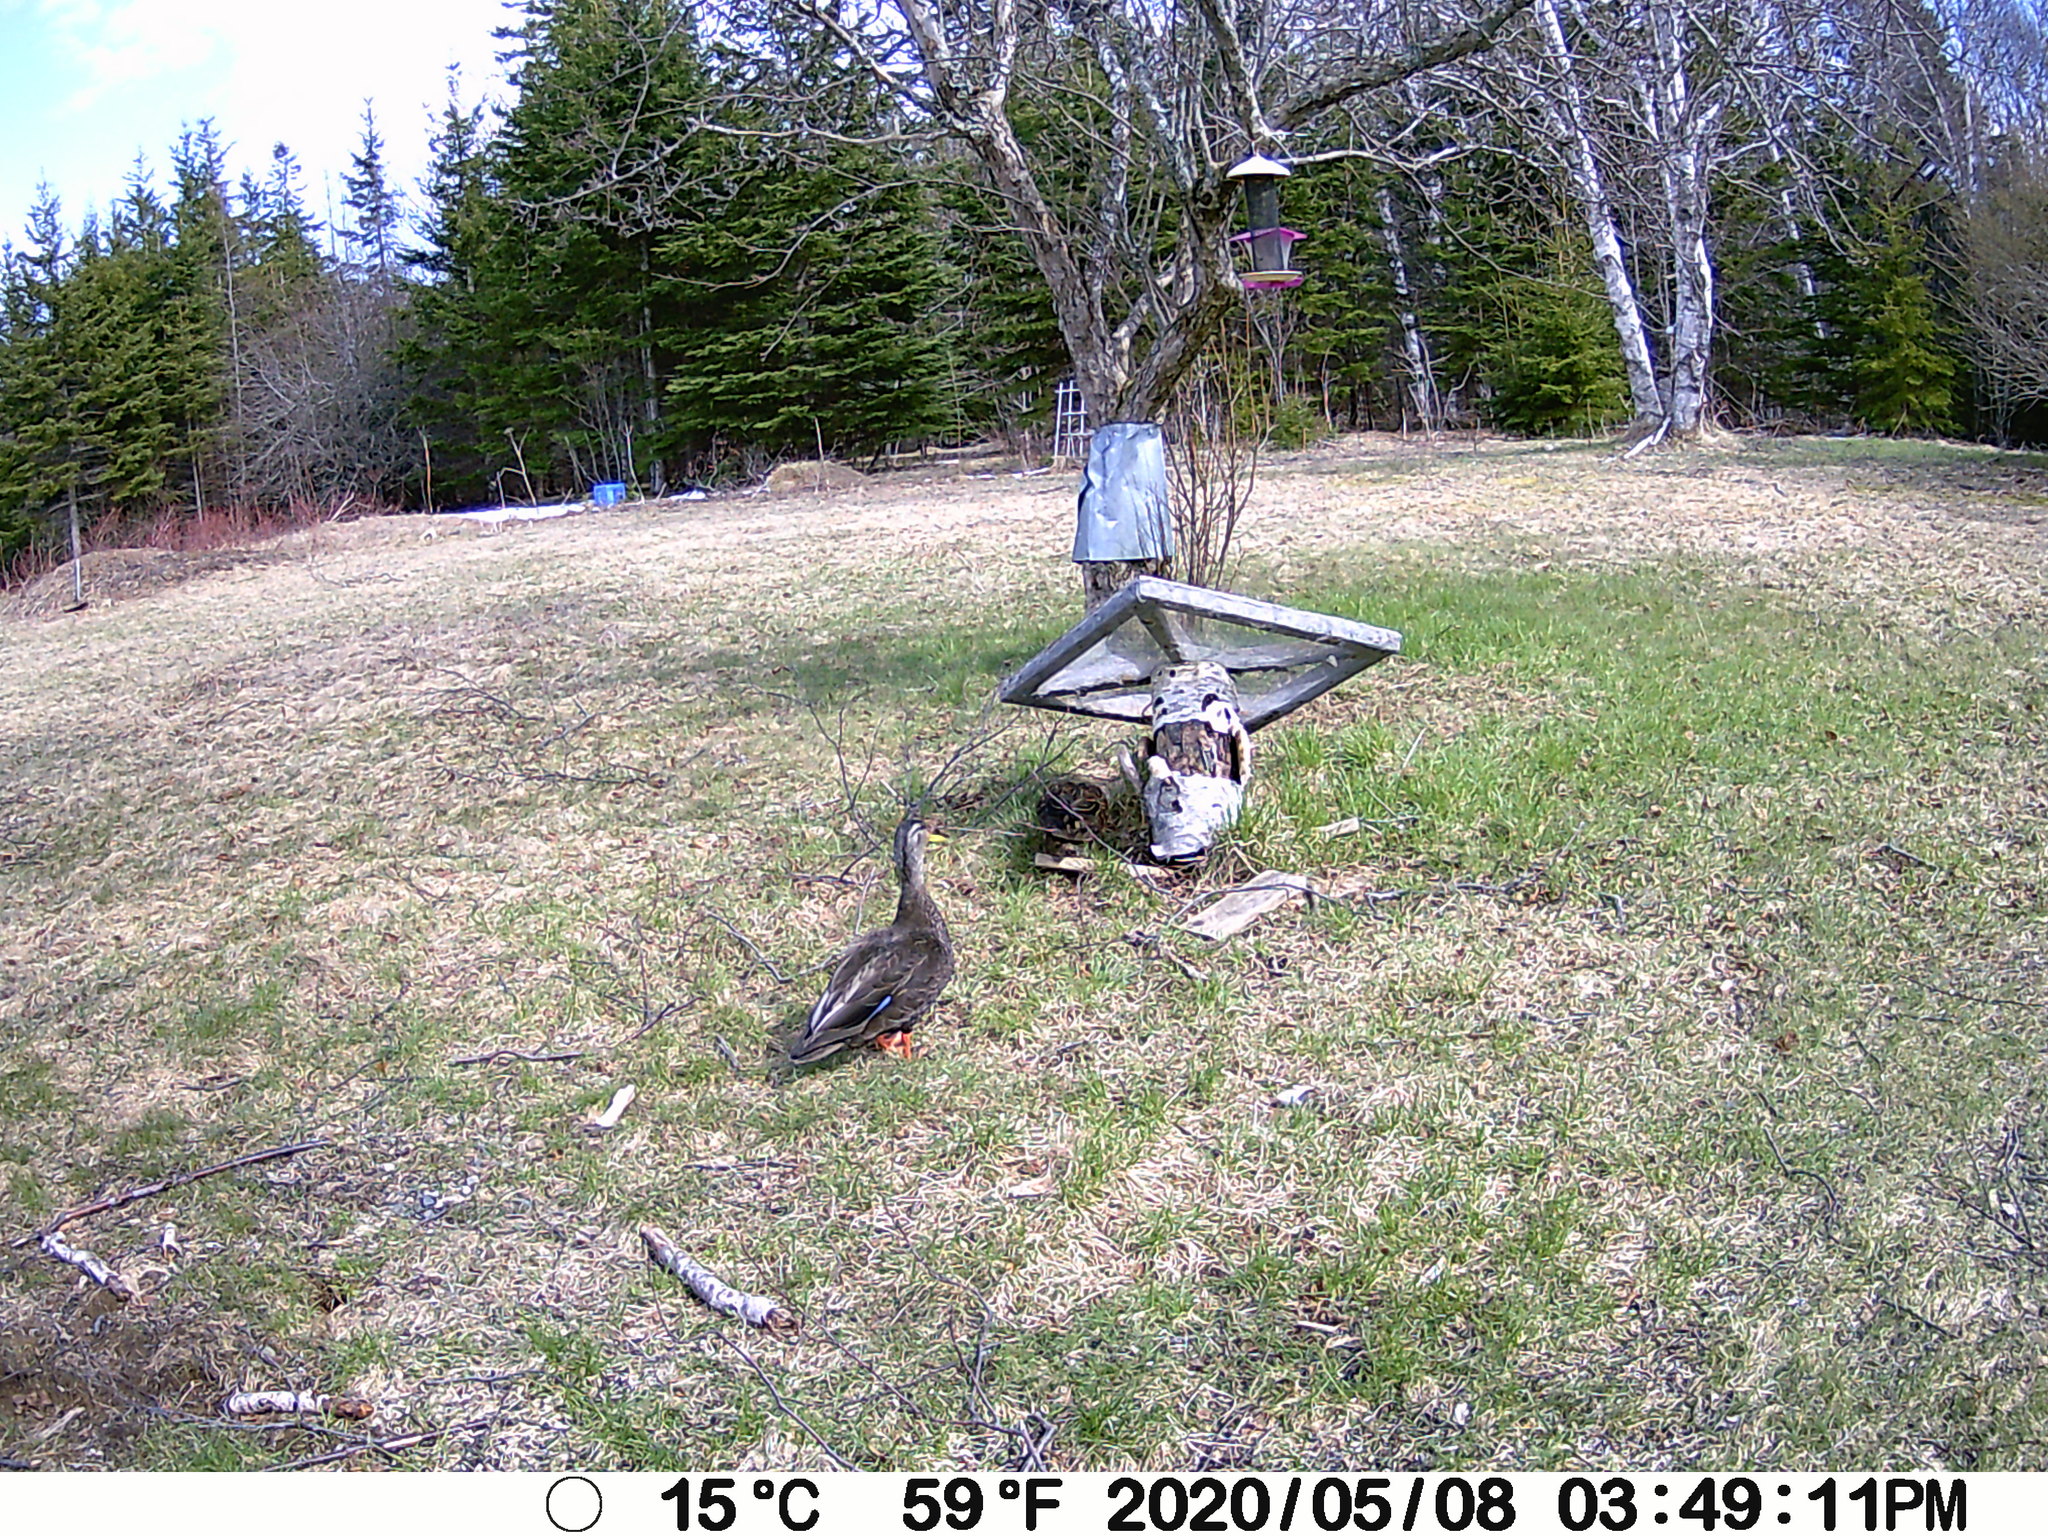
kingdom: Animalia
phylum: Chordata
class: Aves
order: Anseriformes
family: Anatidae
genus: Anas
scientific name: Anas rubripes
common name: American black duck
